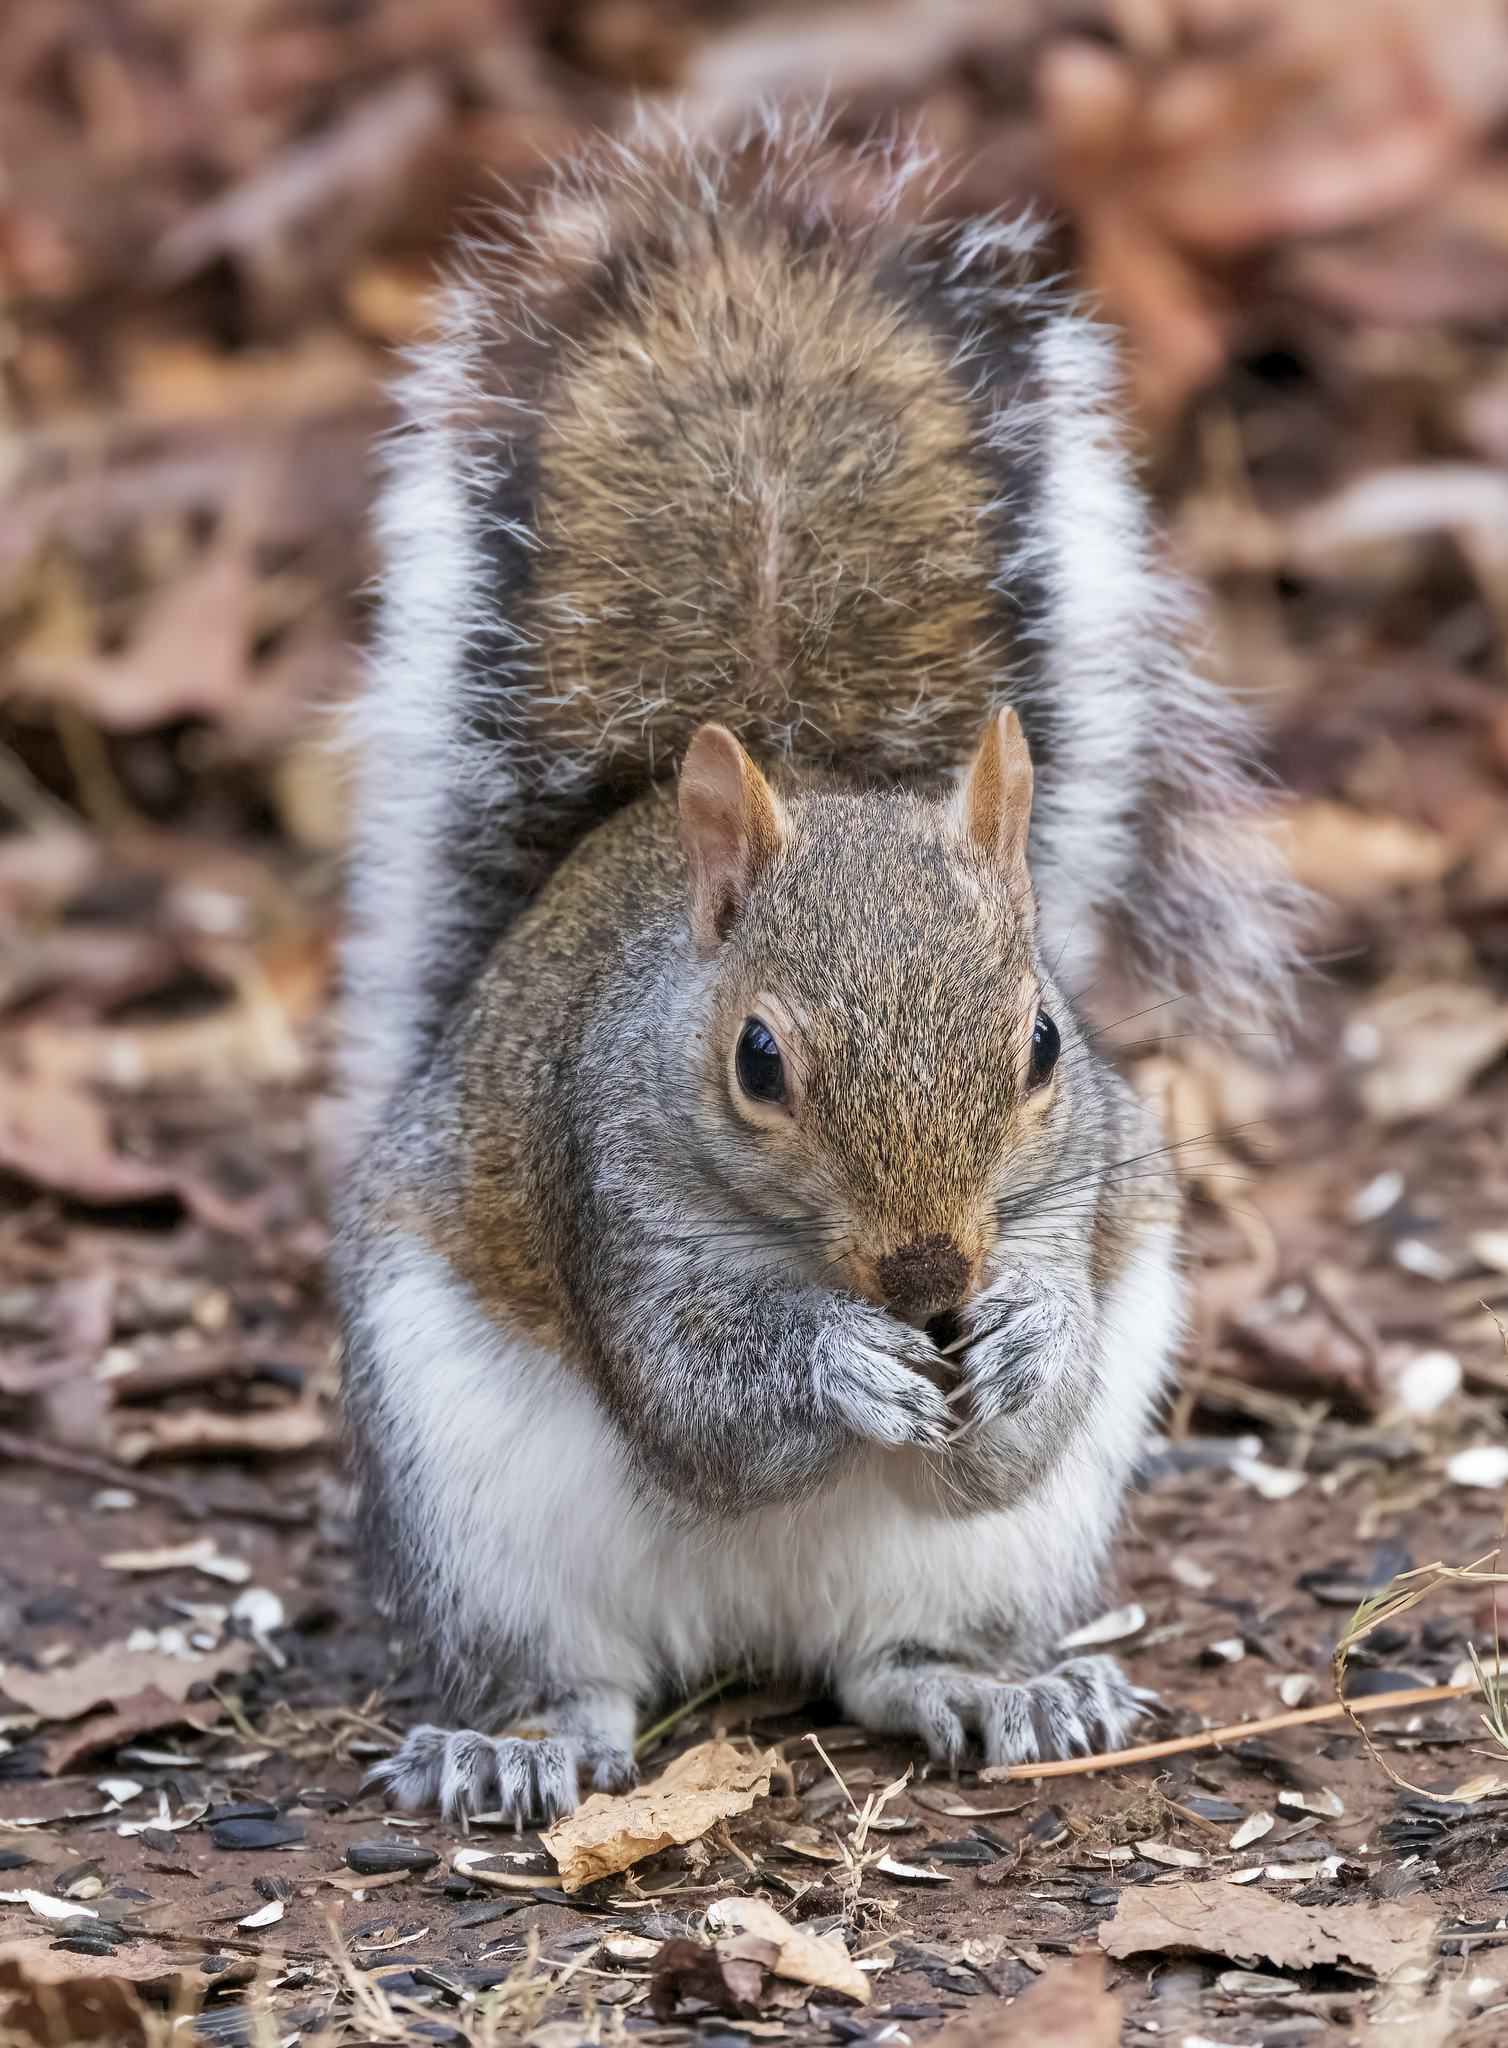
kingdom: Animalia
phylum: Chordata
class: Mammalia
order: Rodentia
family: Sciuridae
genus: Sciurus
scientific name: Sciurus carolinensis
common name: Eastern gray squirrel
